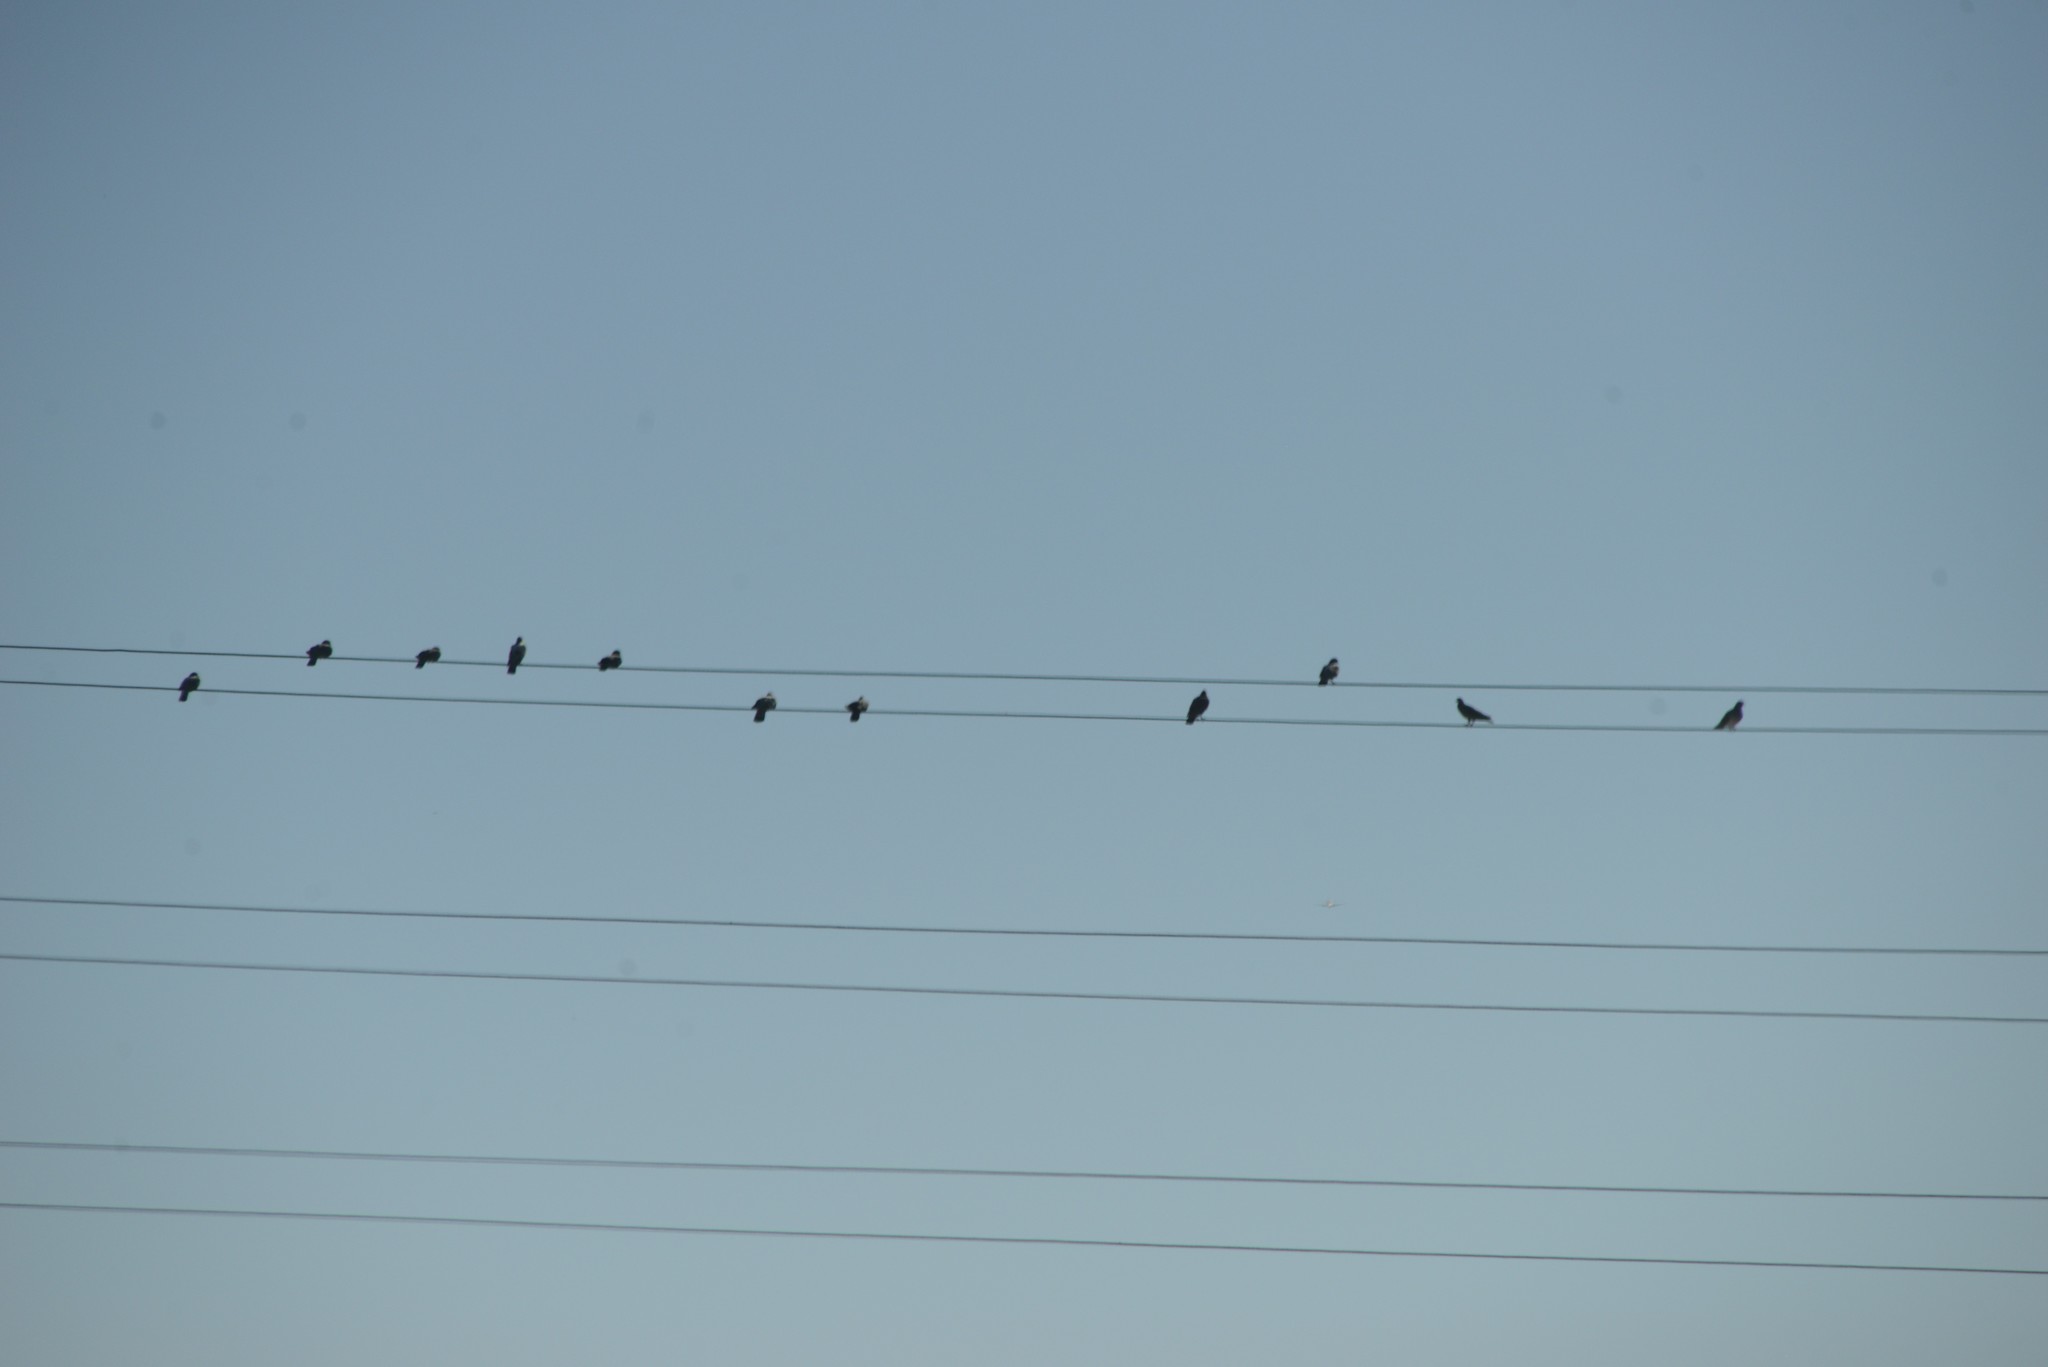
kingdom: Animalia
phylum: Chordata
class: Aves
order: Columbiformes
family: Columbidae
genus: Columba
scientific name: Columba livia
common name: Rock pigeon
